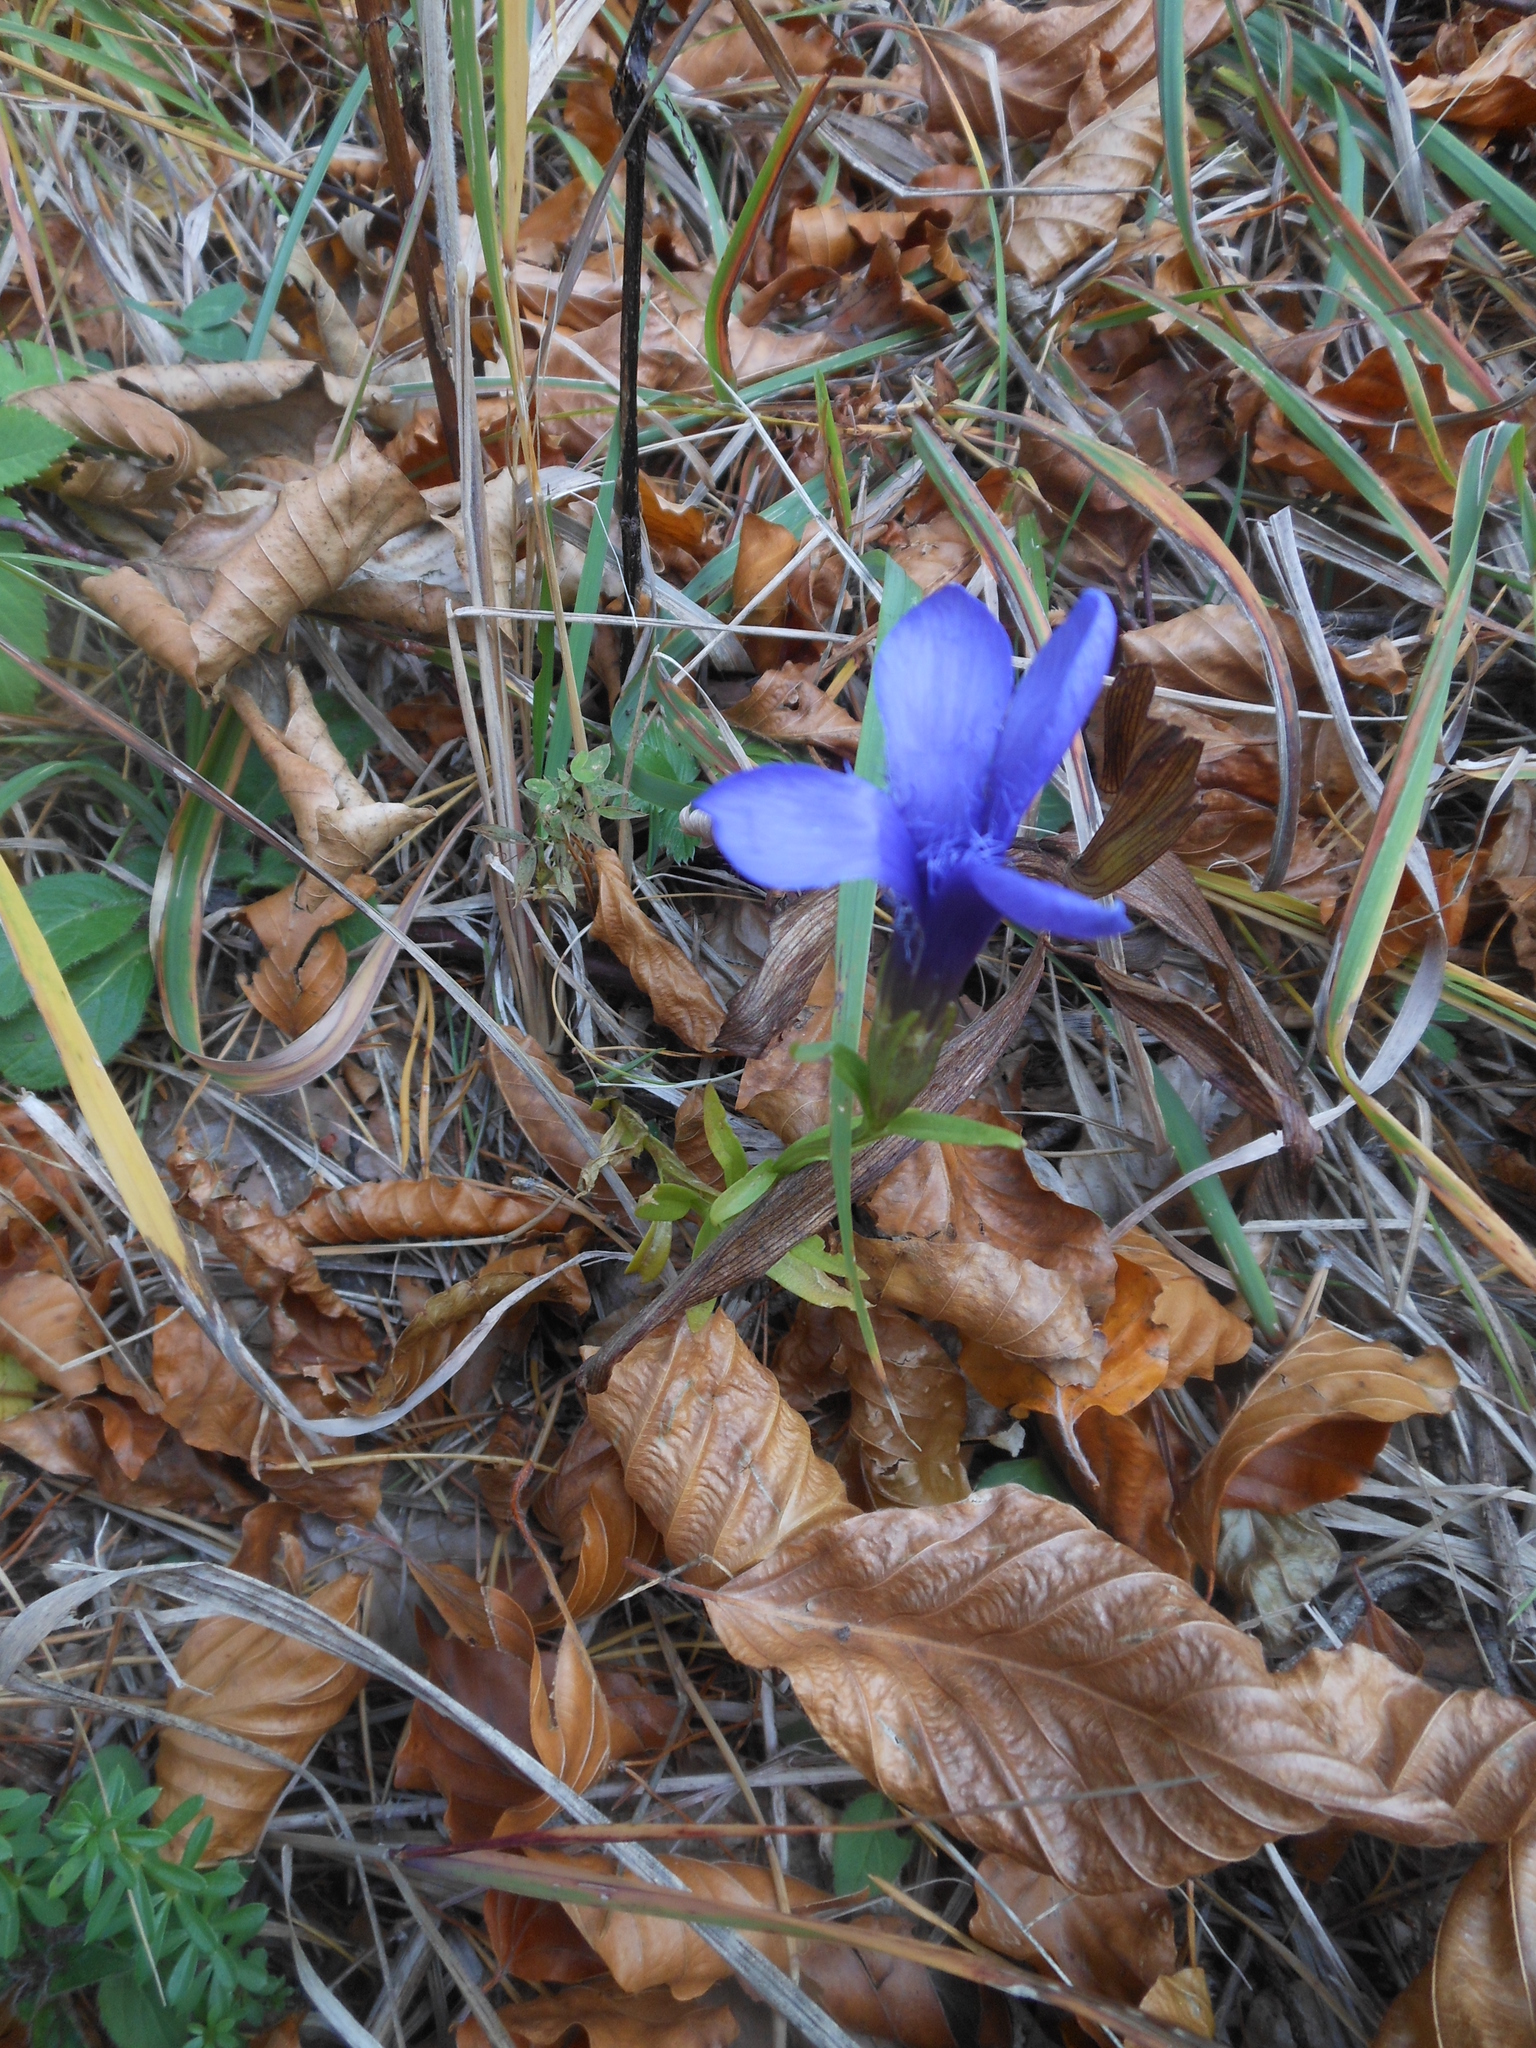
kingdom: Plantae
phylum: Tracheophyta
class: Magnoliopsida
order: Gentianales
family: Gentianaceae
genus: Gentianopsis
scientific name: Gentianopsis ciliata
